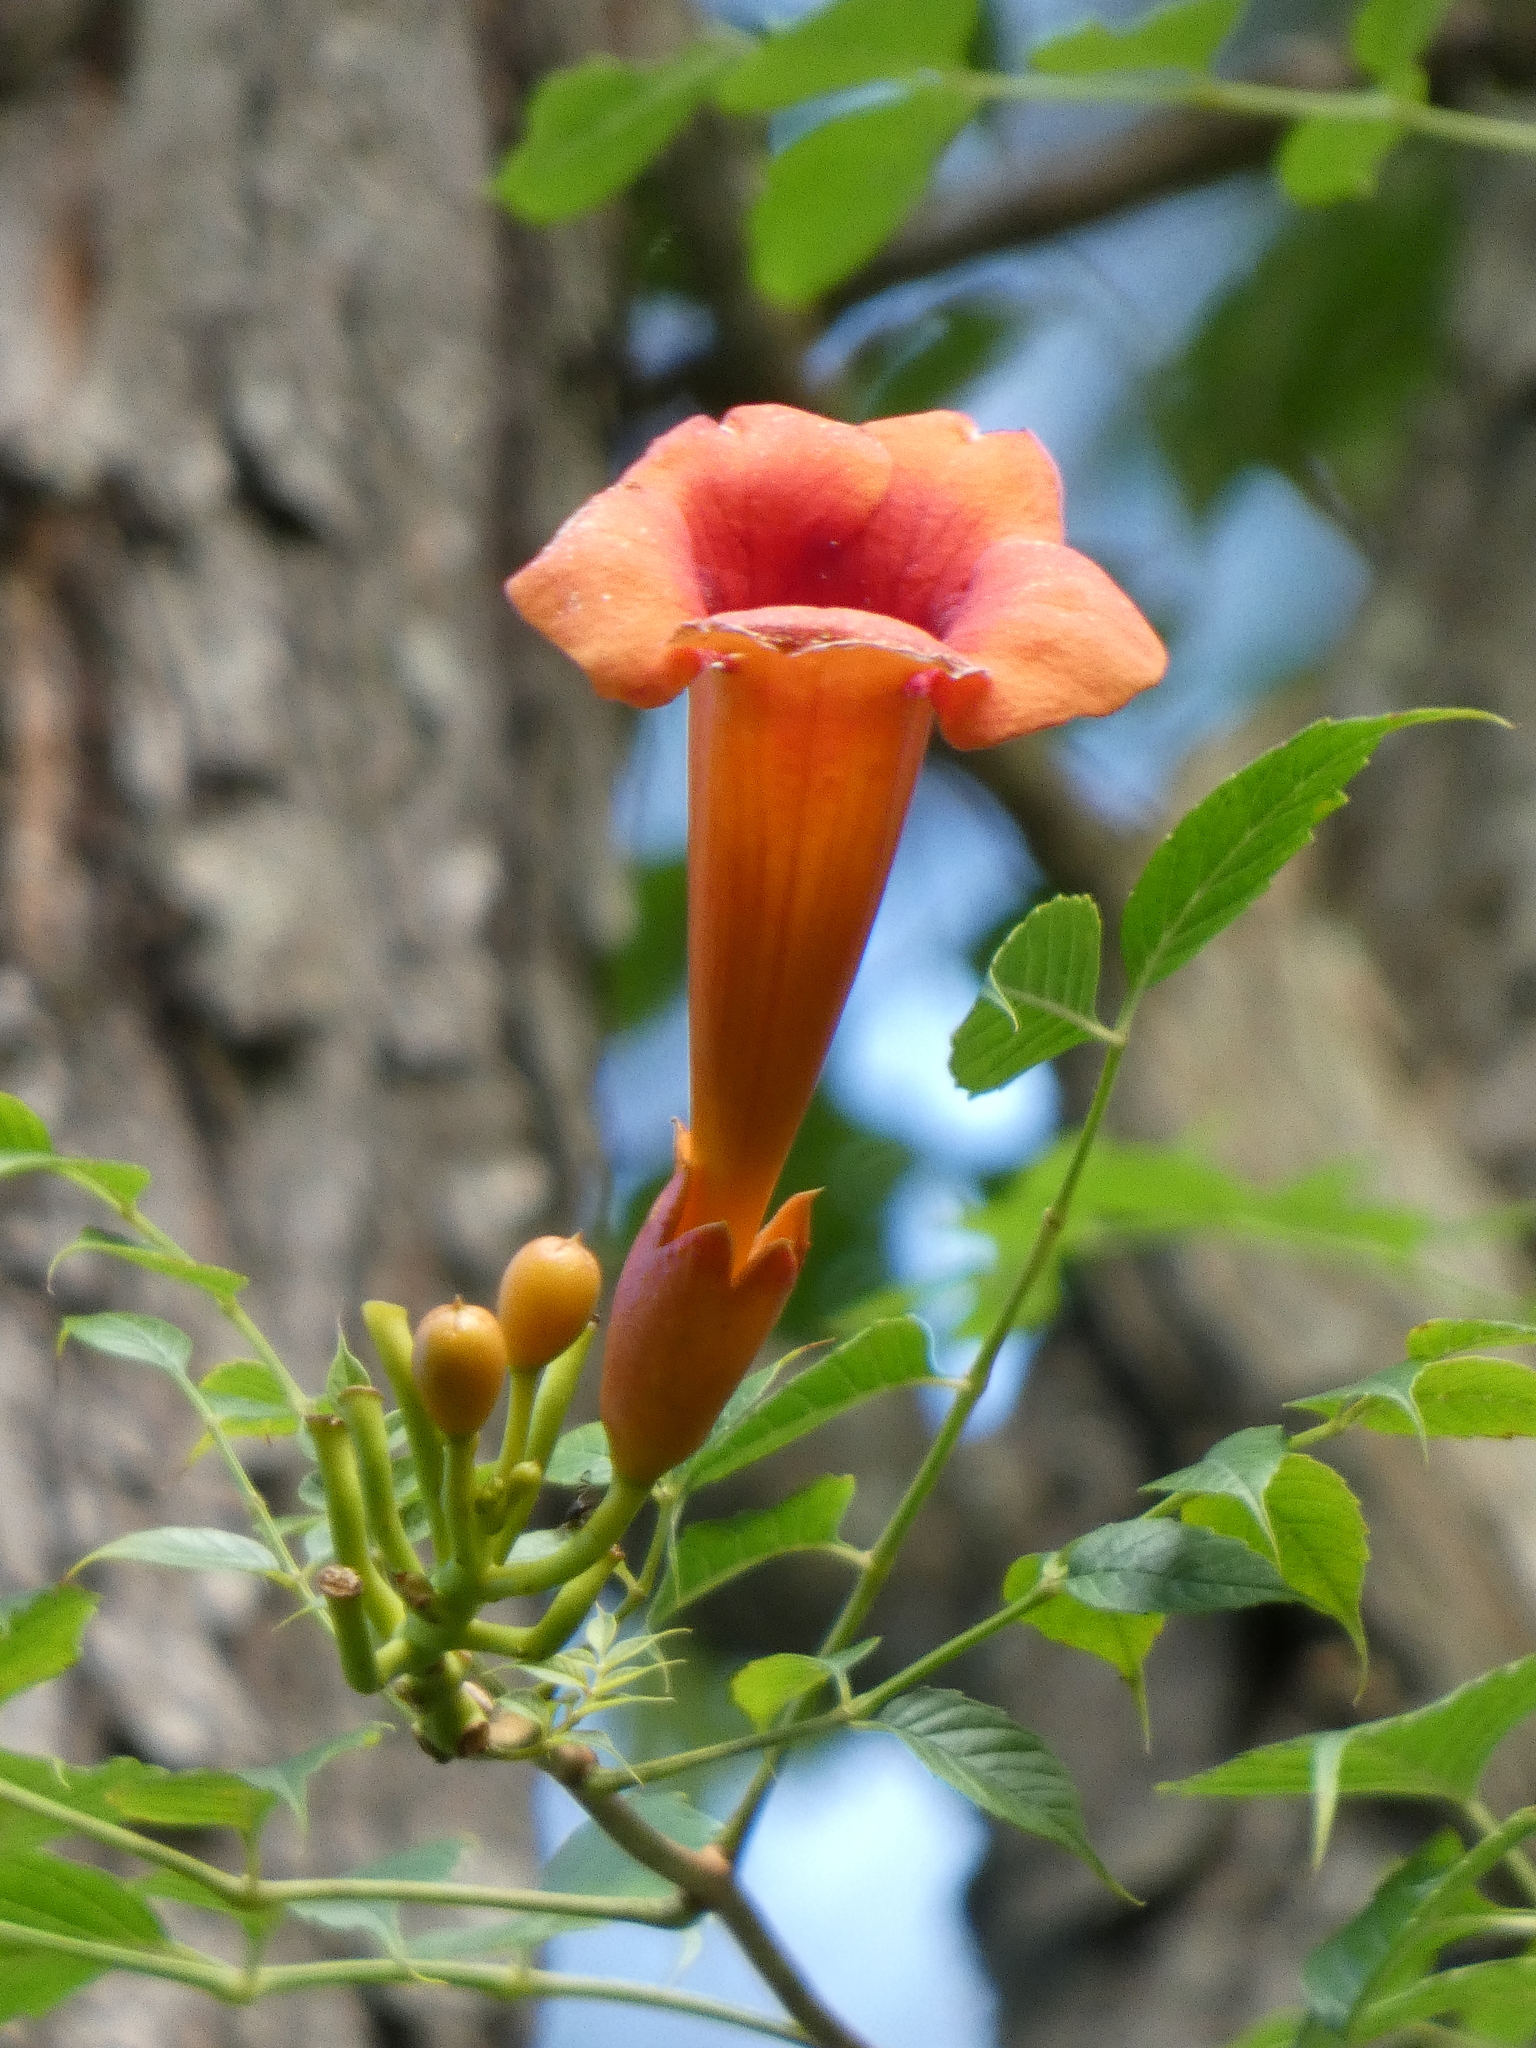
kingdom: Plantae
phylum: Tracheophyta
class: Magnoliopsida
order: Lamiales
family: Bignoniaceae
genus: Campsis
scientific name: Campsis radicans
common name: Trumpet-creeper
